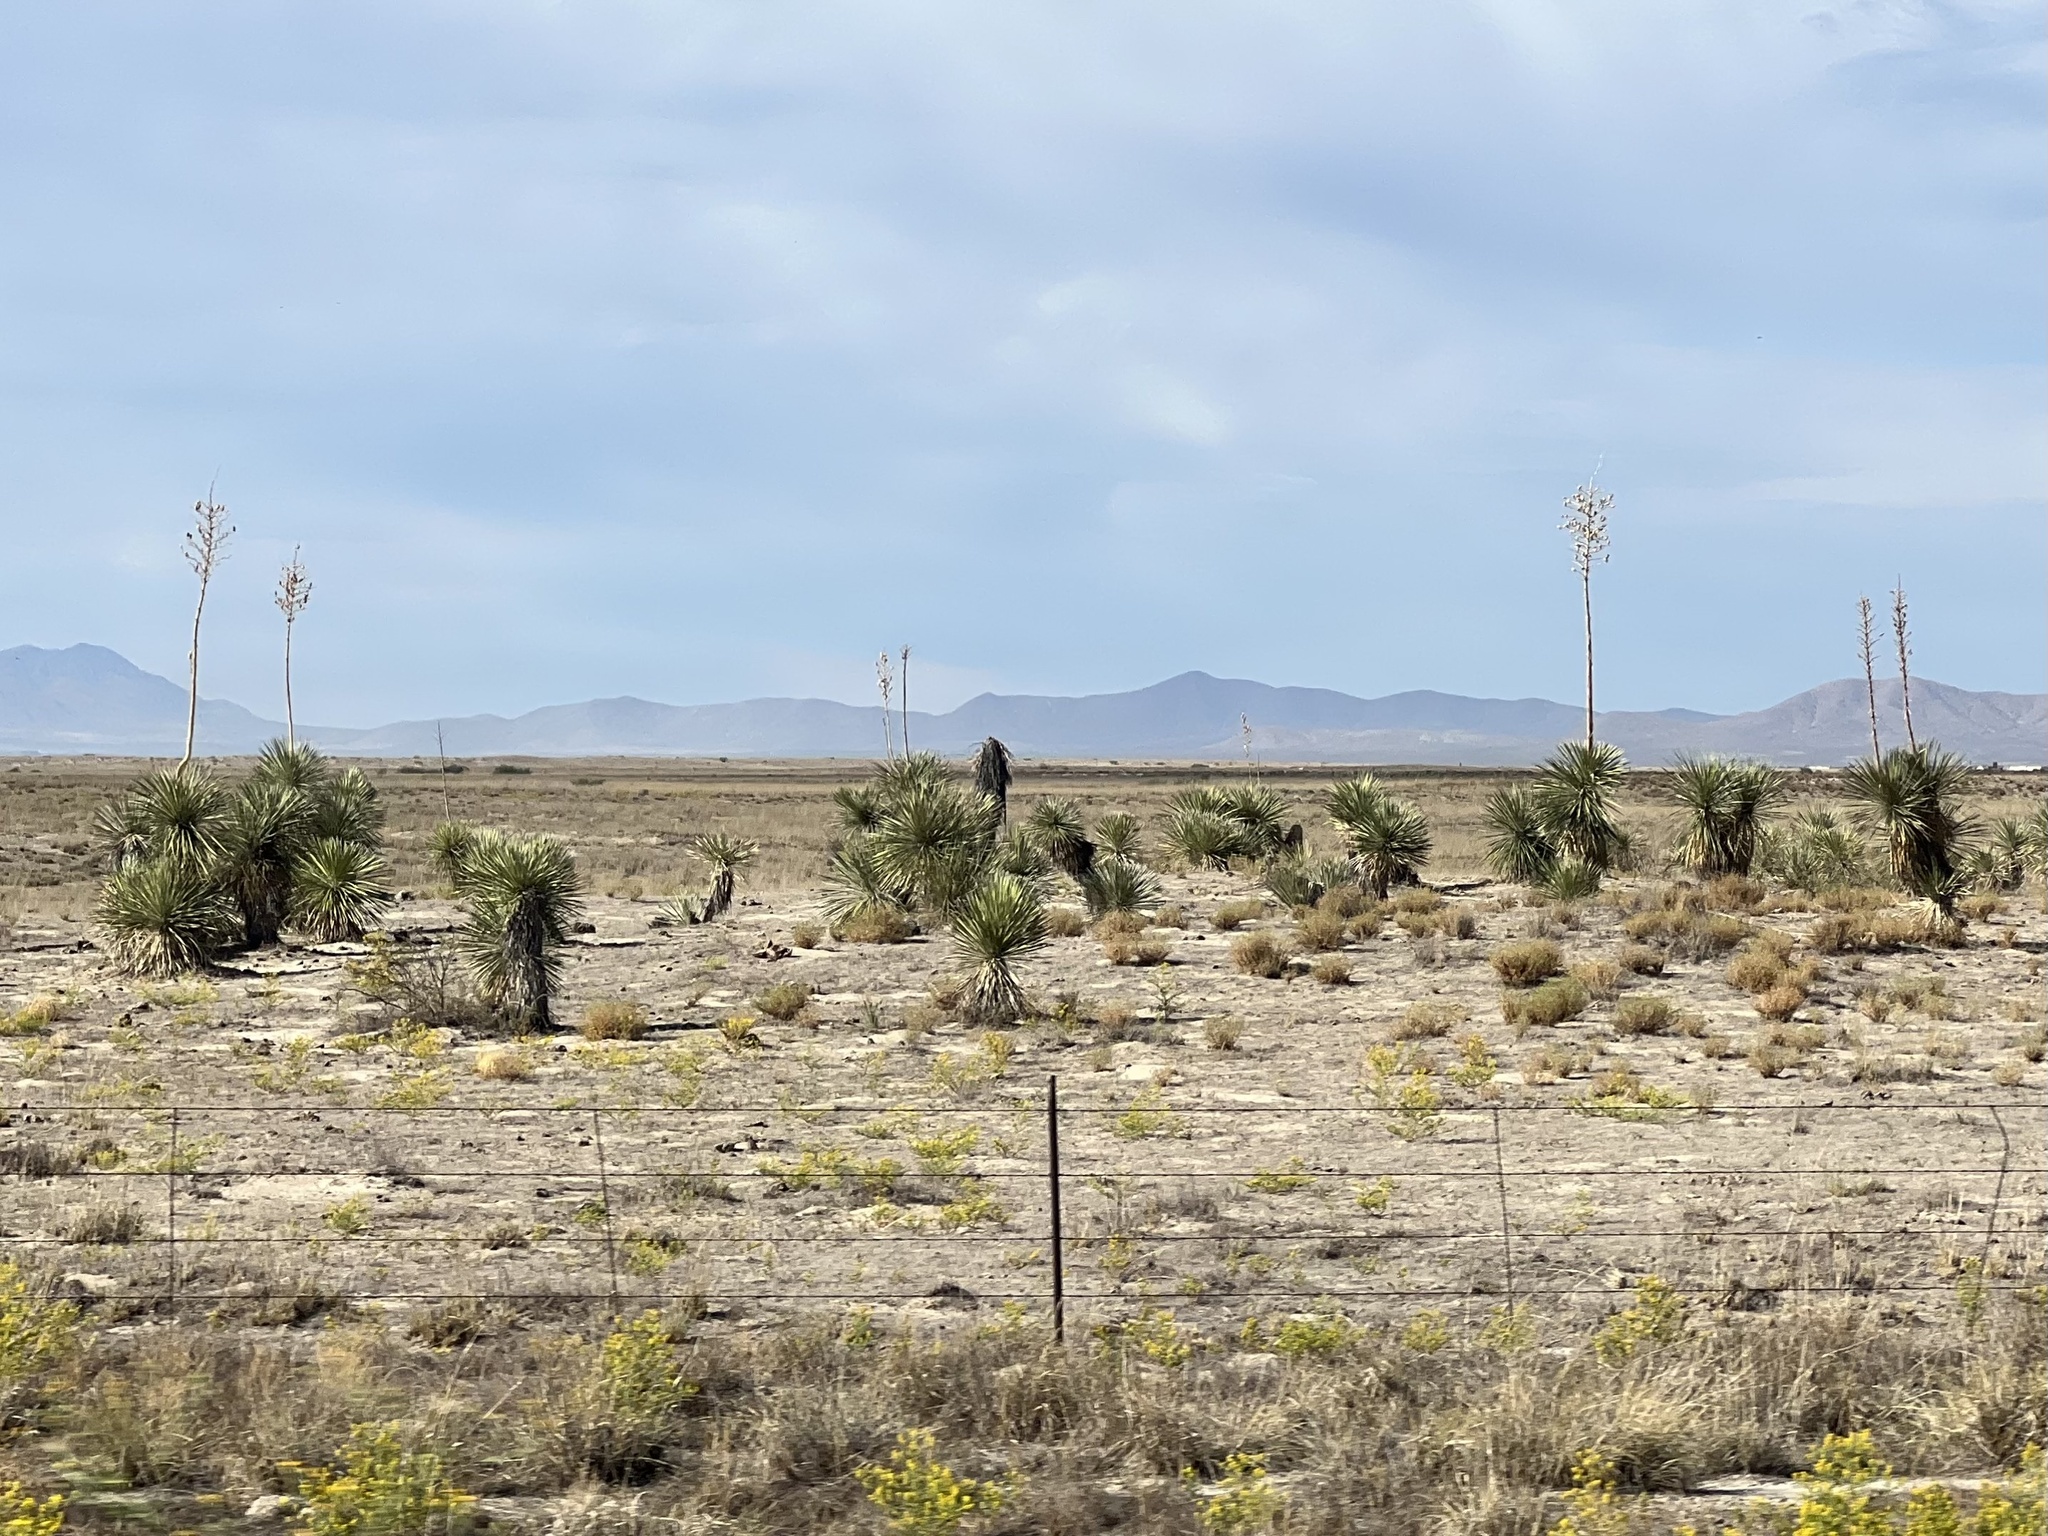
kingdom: Plantae
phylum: Tracheophyta
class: Liliopsida
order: Asparagales
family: Asparagaceae
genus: Yucca
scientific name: Yucca elata
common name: Palmella
